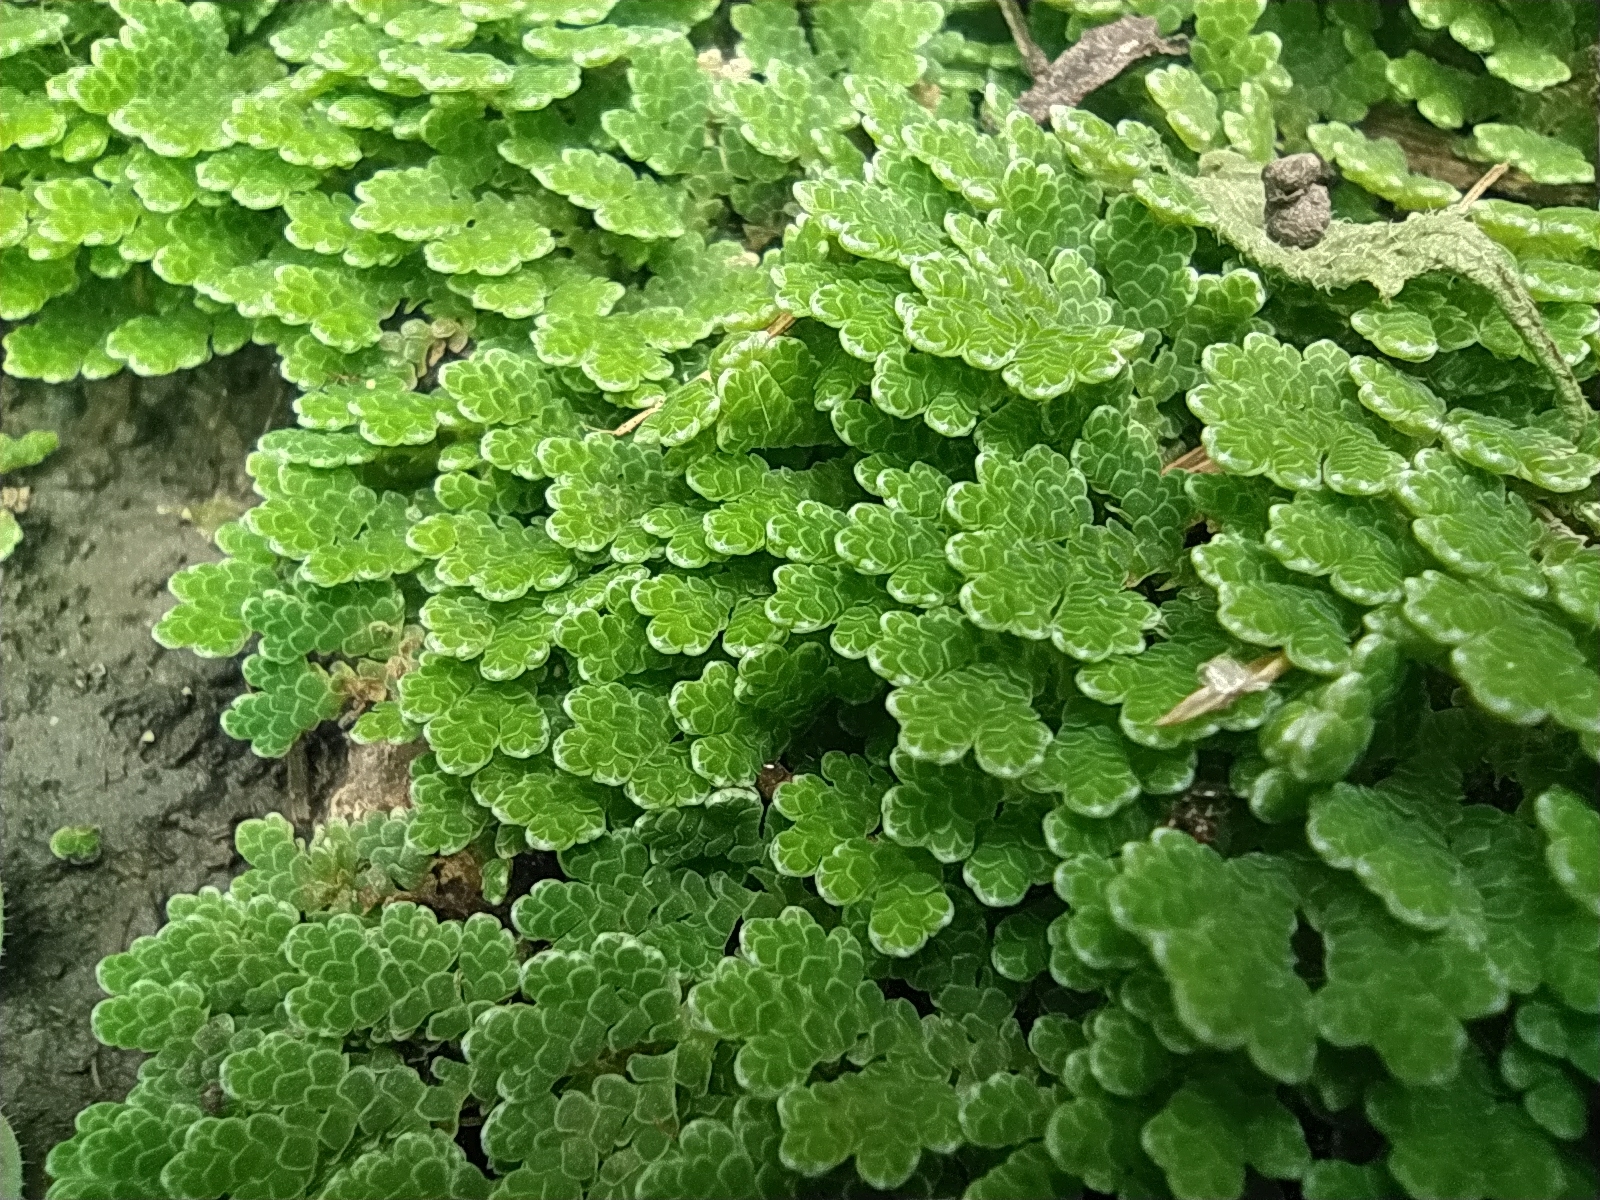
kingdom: Plantae
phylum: Tracheophyta
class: Polypodiopsida
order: Salviniales
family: Salviniaceae
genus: Azolla
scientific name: Azolla filiculoides
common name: Water fern
